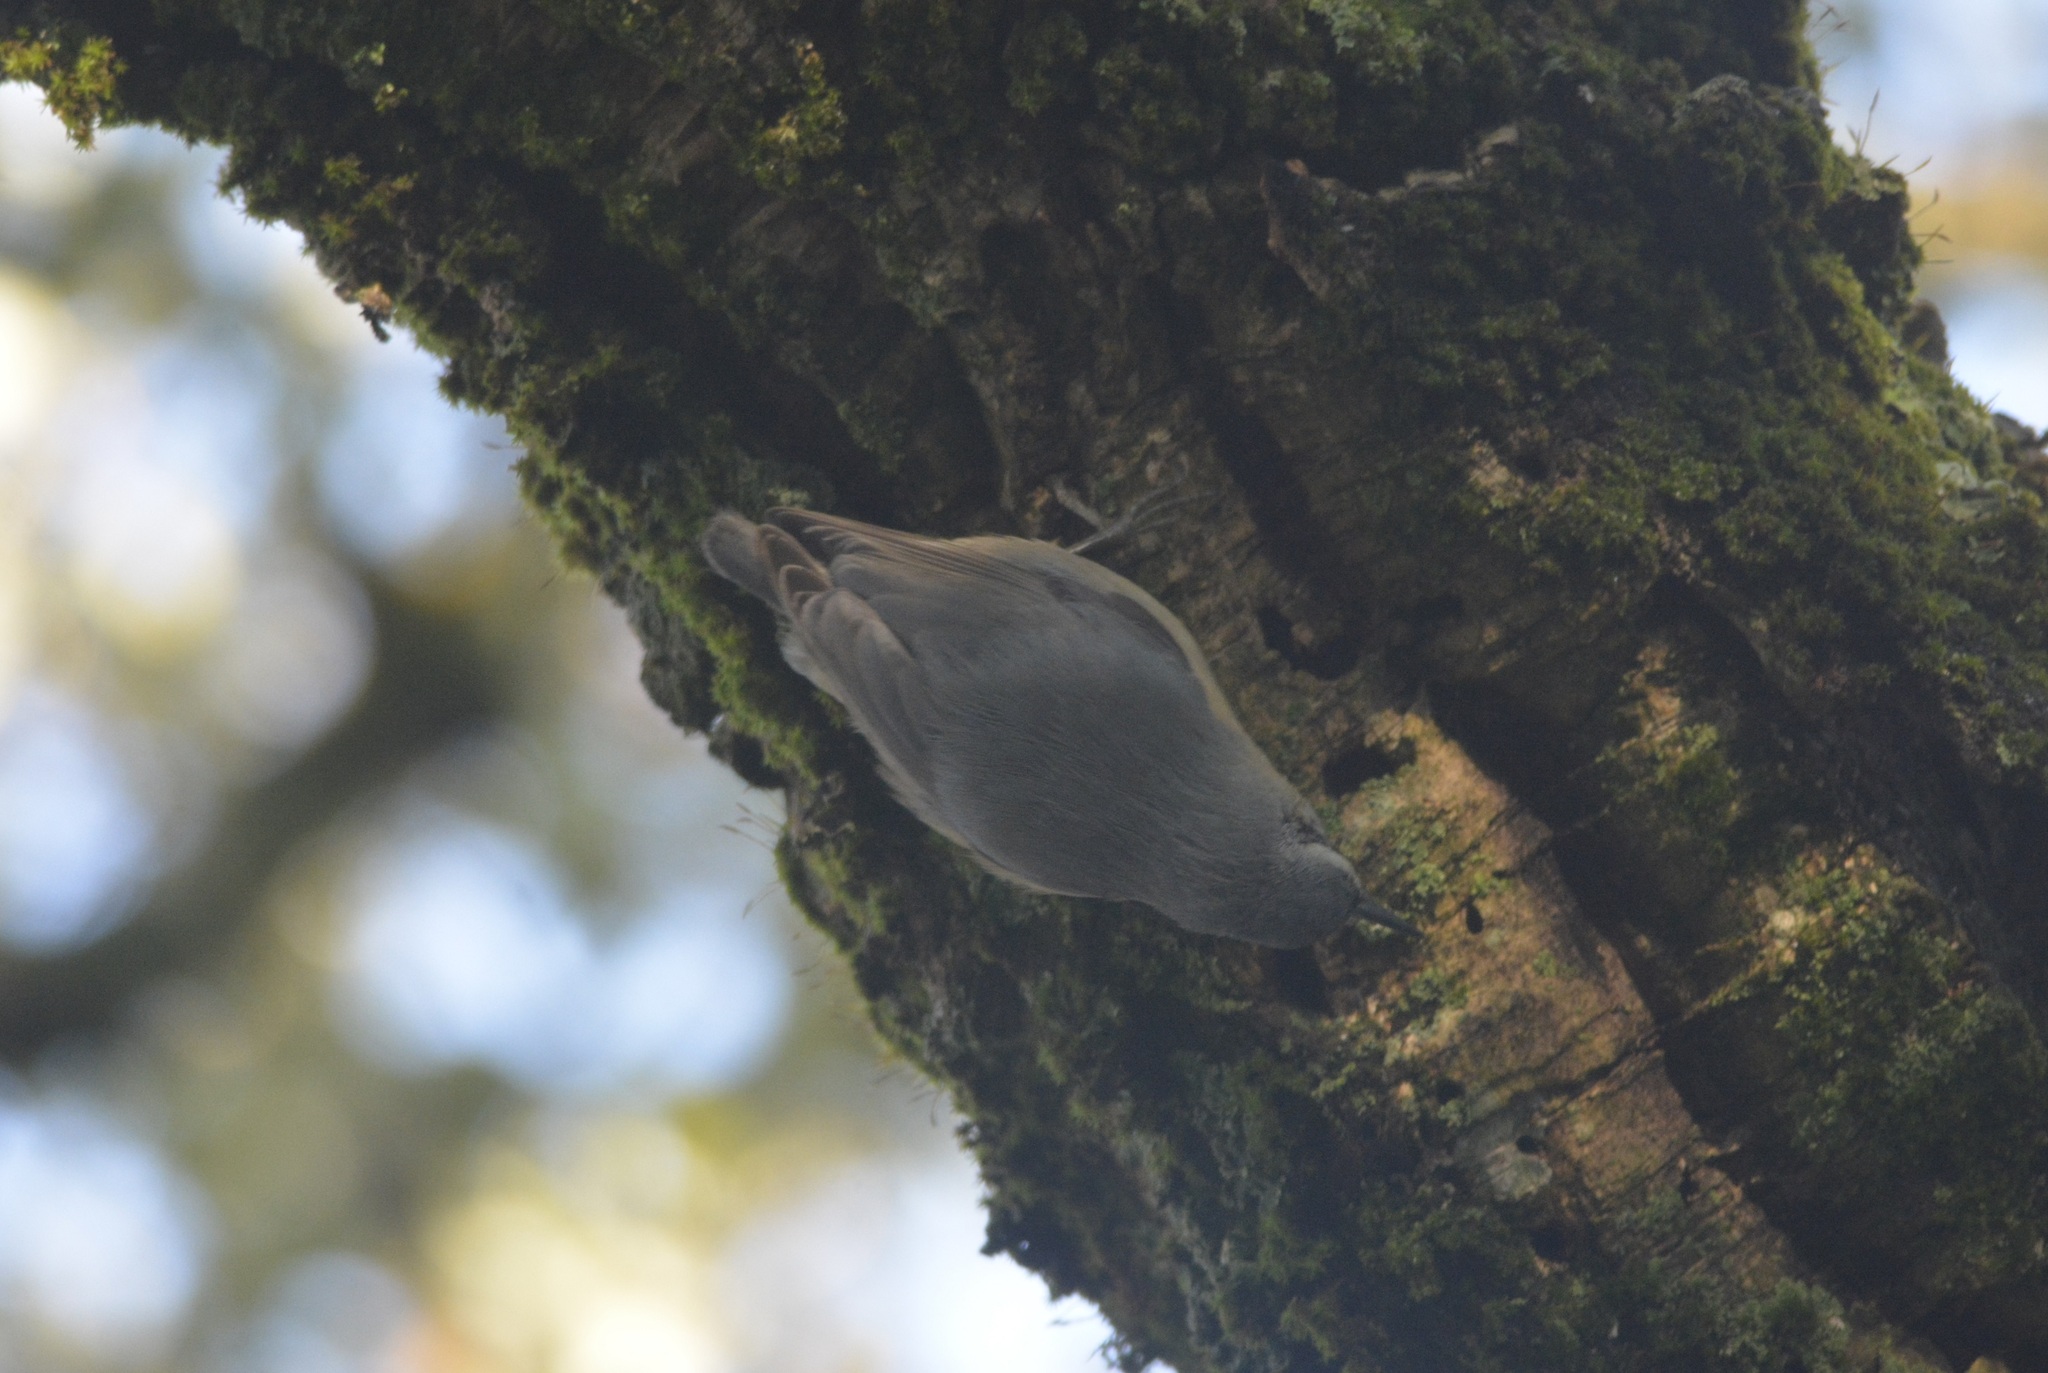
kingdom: Animalia
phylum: Chordata
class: Aves
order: Passeriformes
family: Sittidae
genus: Sitta
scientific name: Sitta ledanti
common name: Algerian nuthatch
